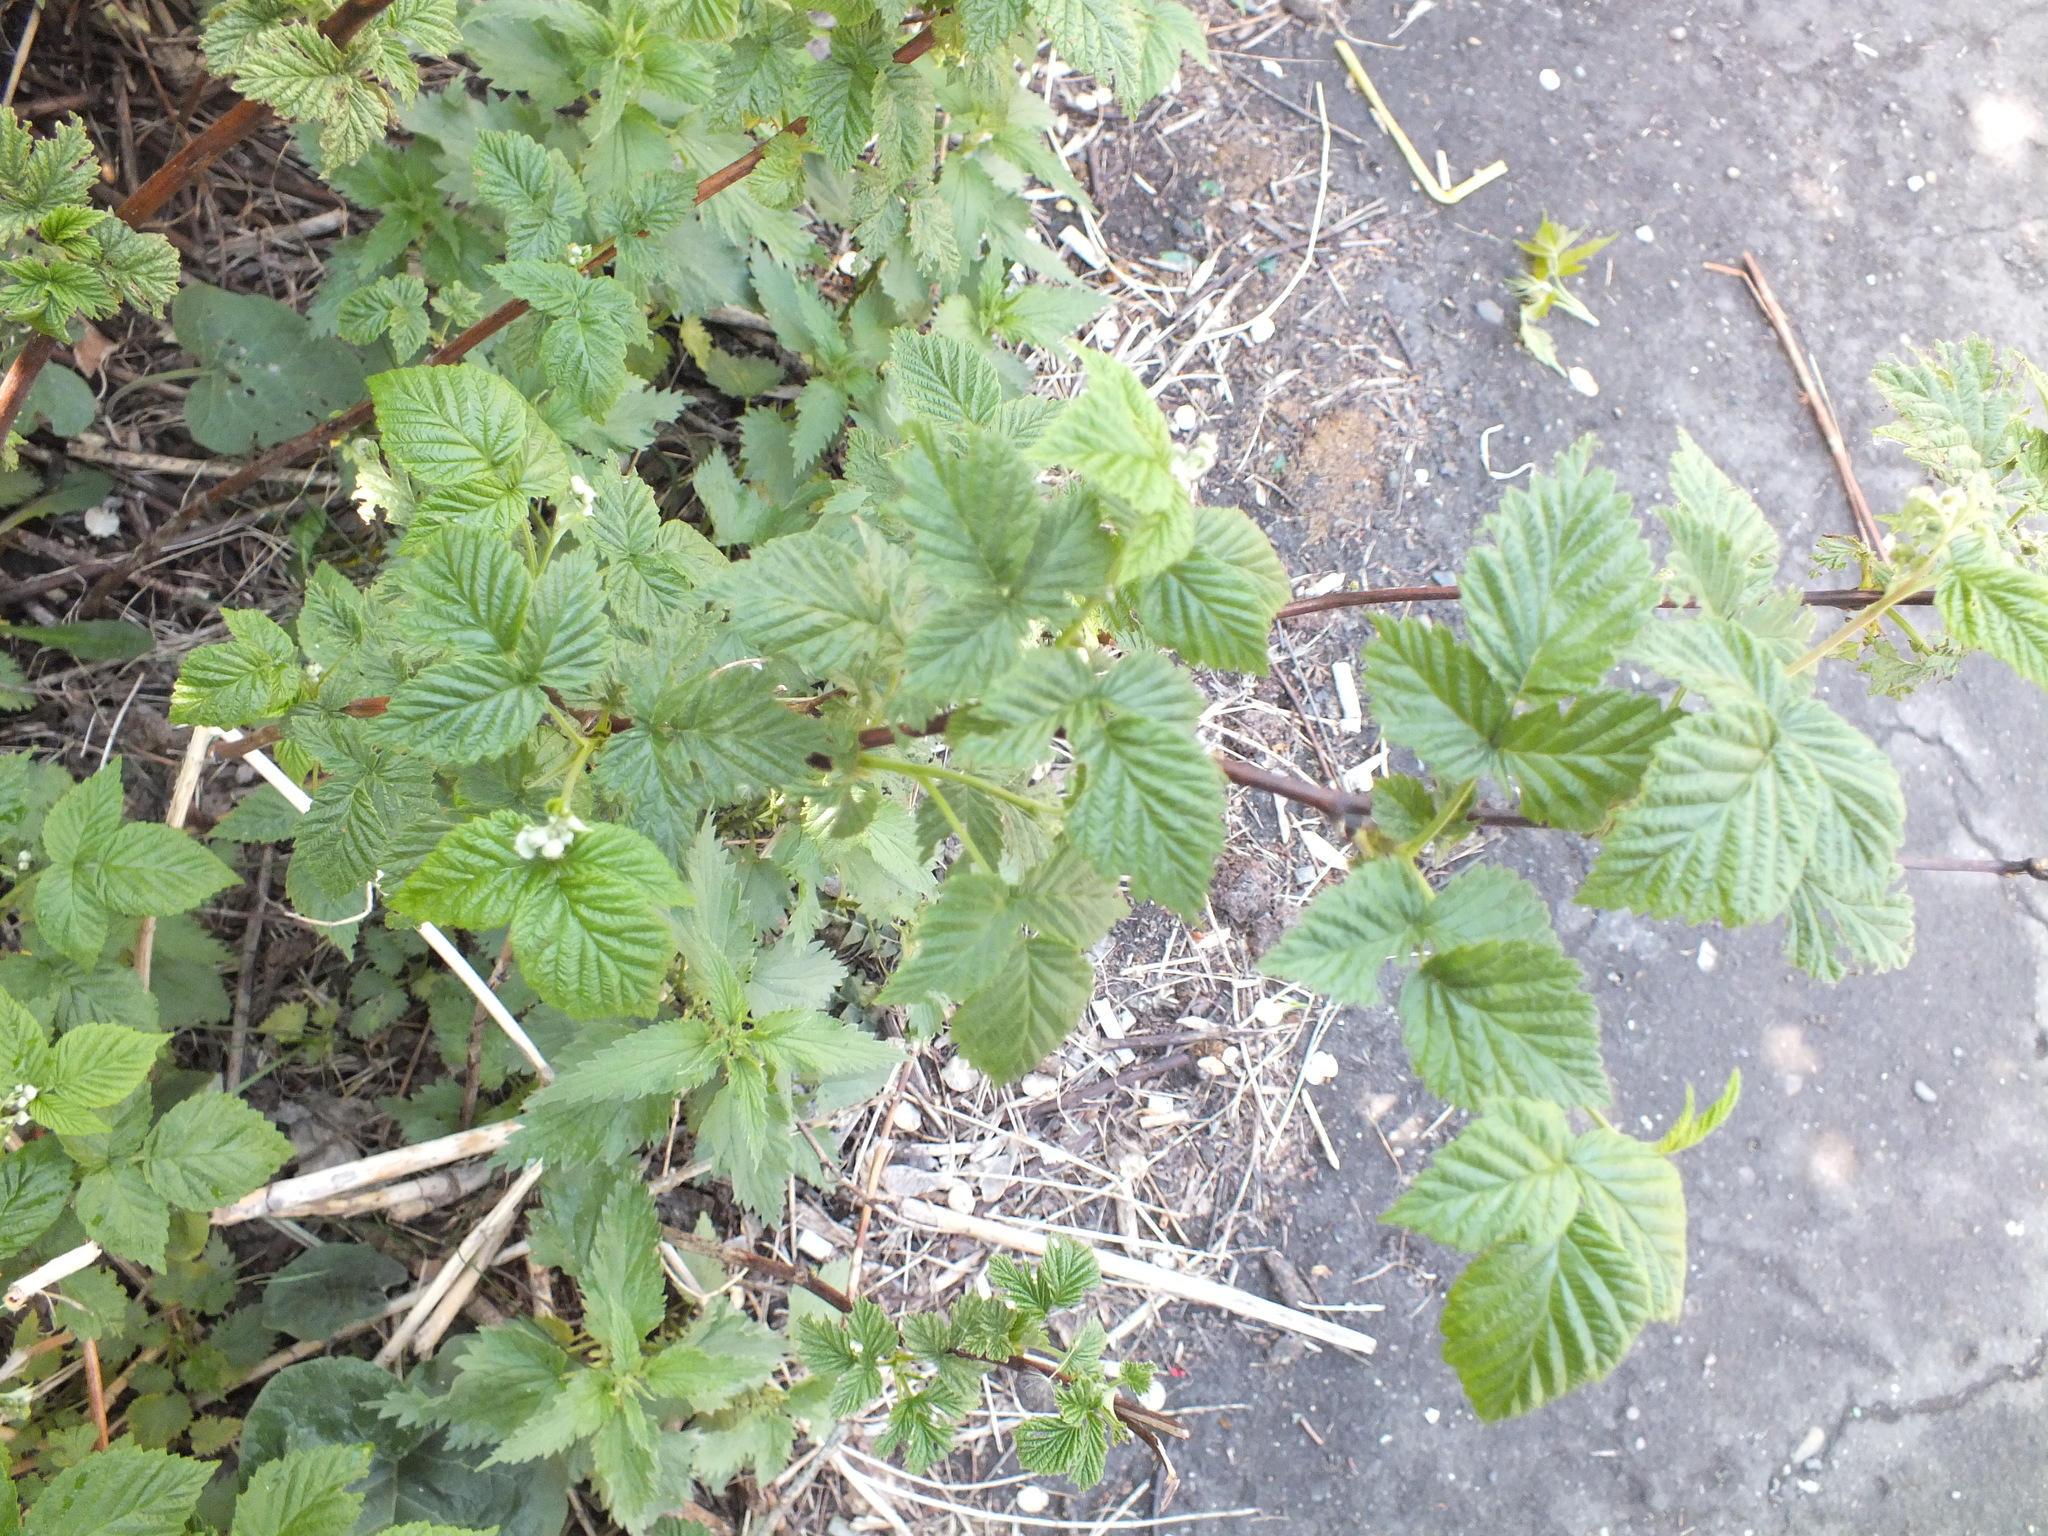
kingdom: Plantae
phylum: Tracheophyta
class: Magnoliopsida
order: Rosales
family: Rosaceae
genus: Rubus
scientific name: Rubus idaeus
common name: Raspberry
